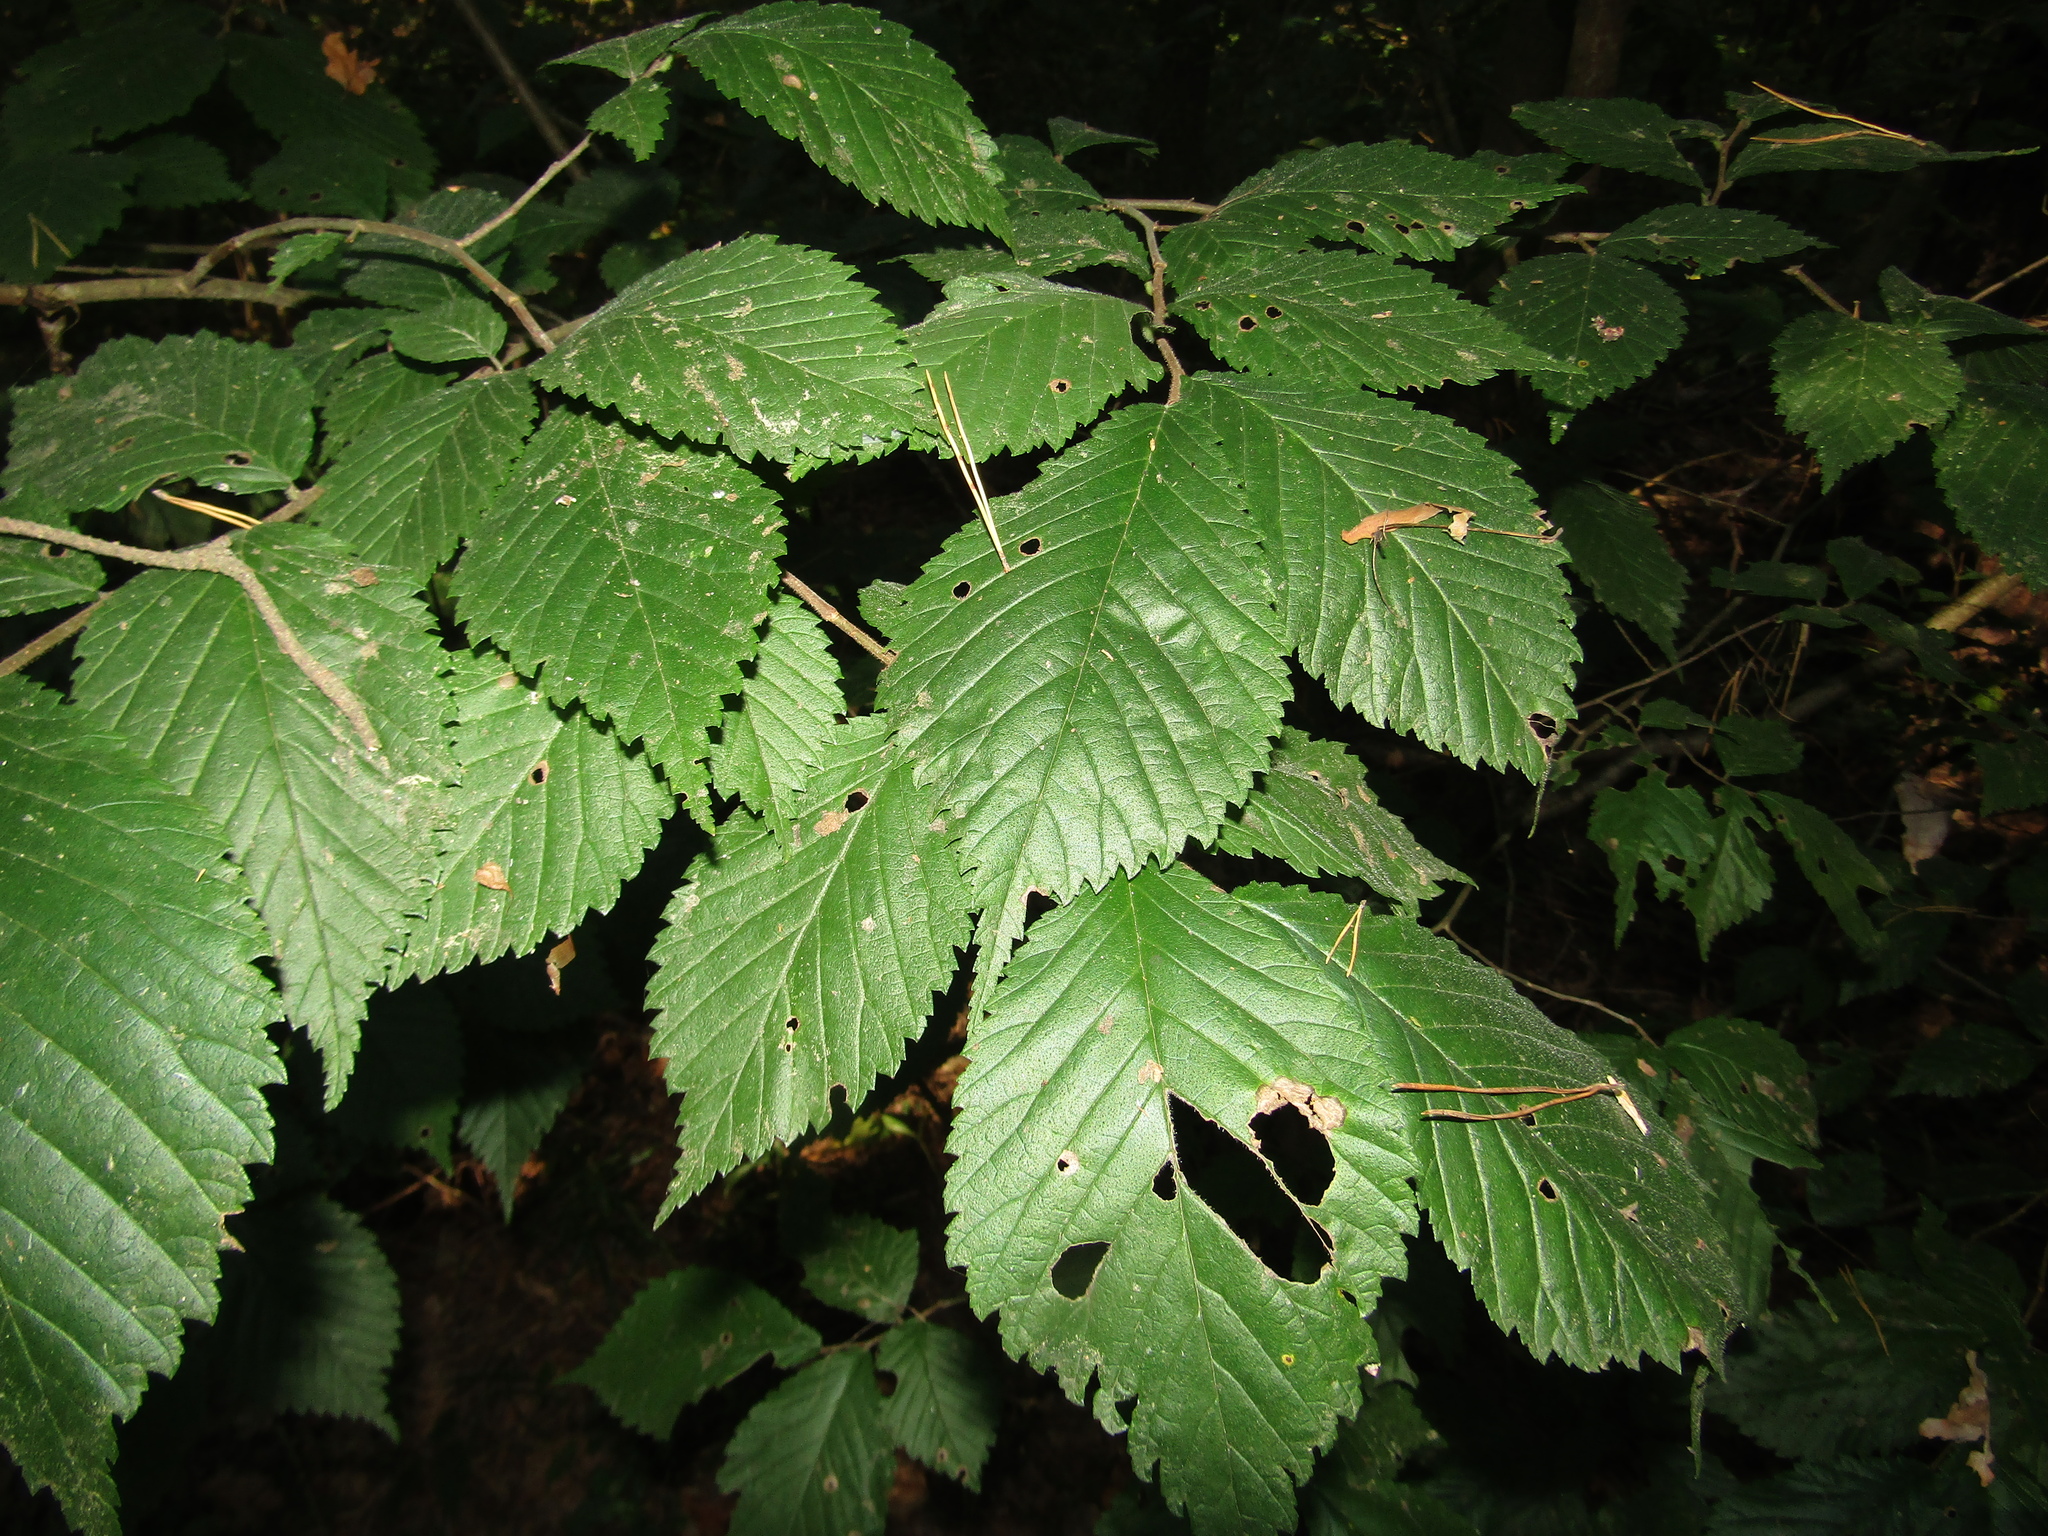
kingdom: Plantae
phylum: Tracheophyta
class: Magnoliopsida
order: Rosales
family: Ulmaceae
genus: Ulmus
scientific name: Ulmus glabra
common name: Wych elm
